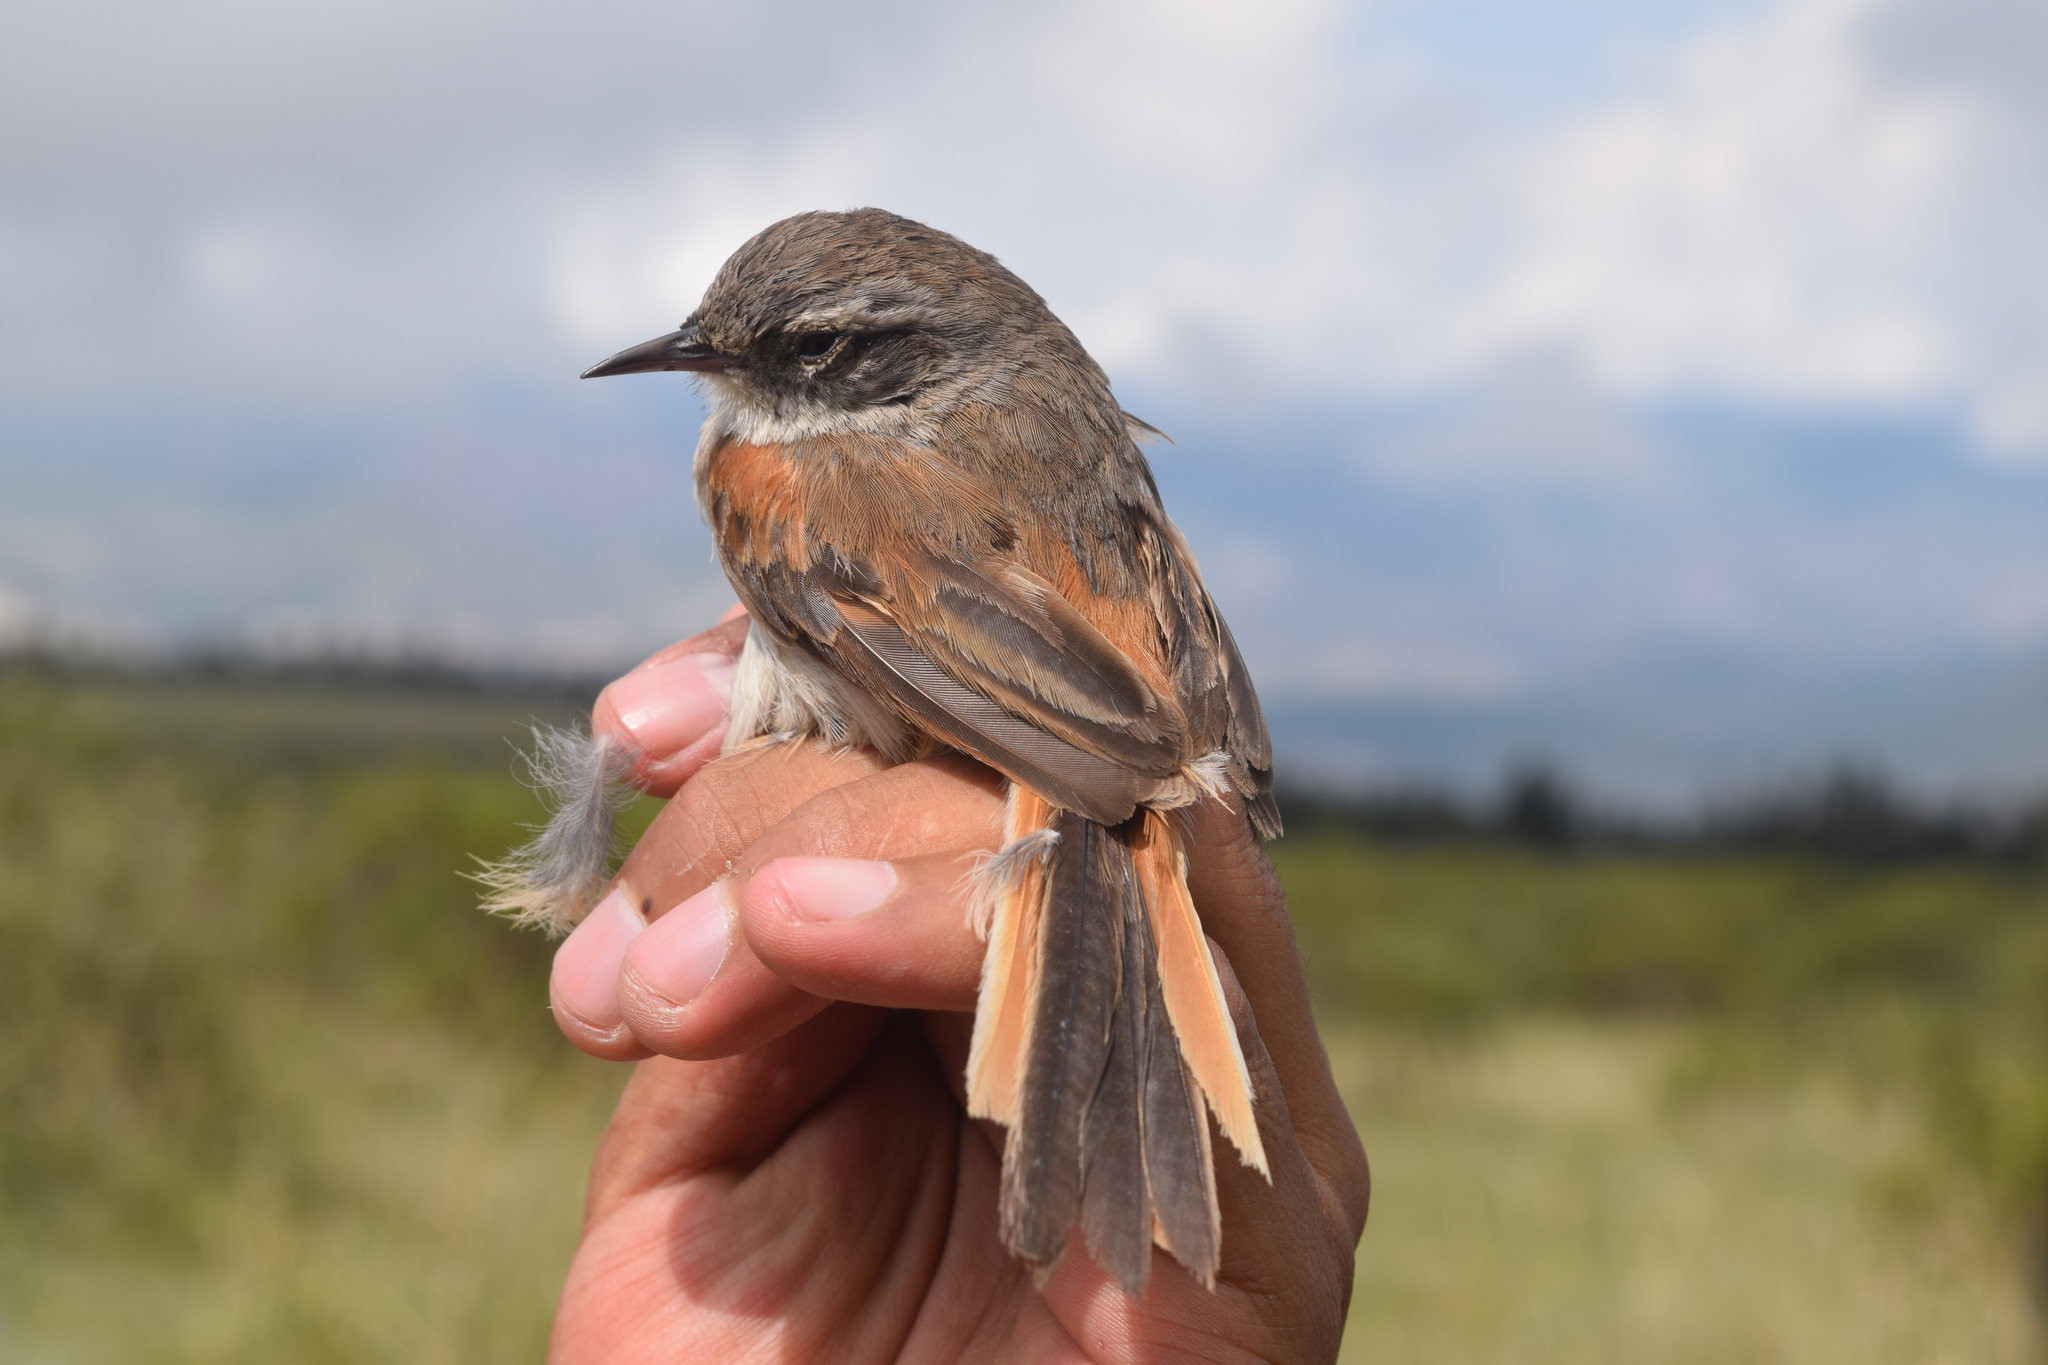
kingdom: Animalia
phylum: Chordata
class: Aves
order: Passeriformes
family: Furnariidae
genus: Asthenes
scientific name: Asthenes dorbignyi
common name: Rusty-vented canastero
